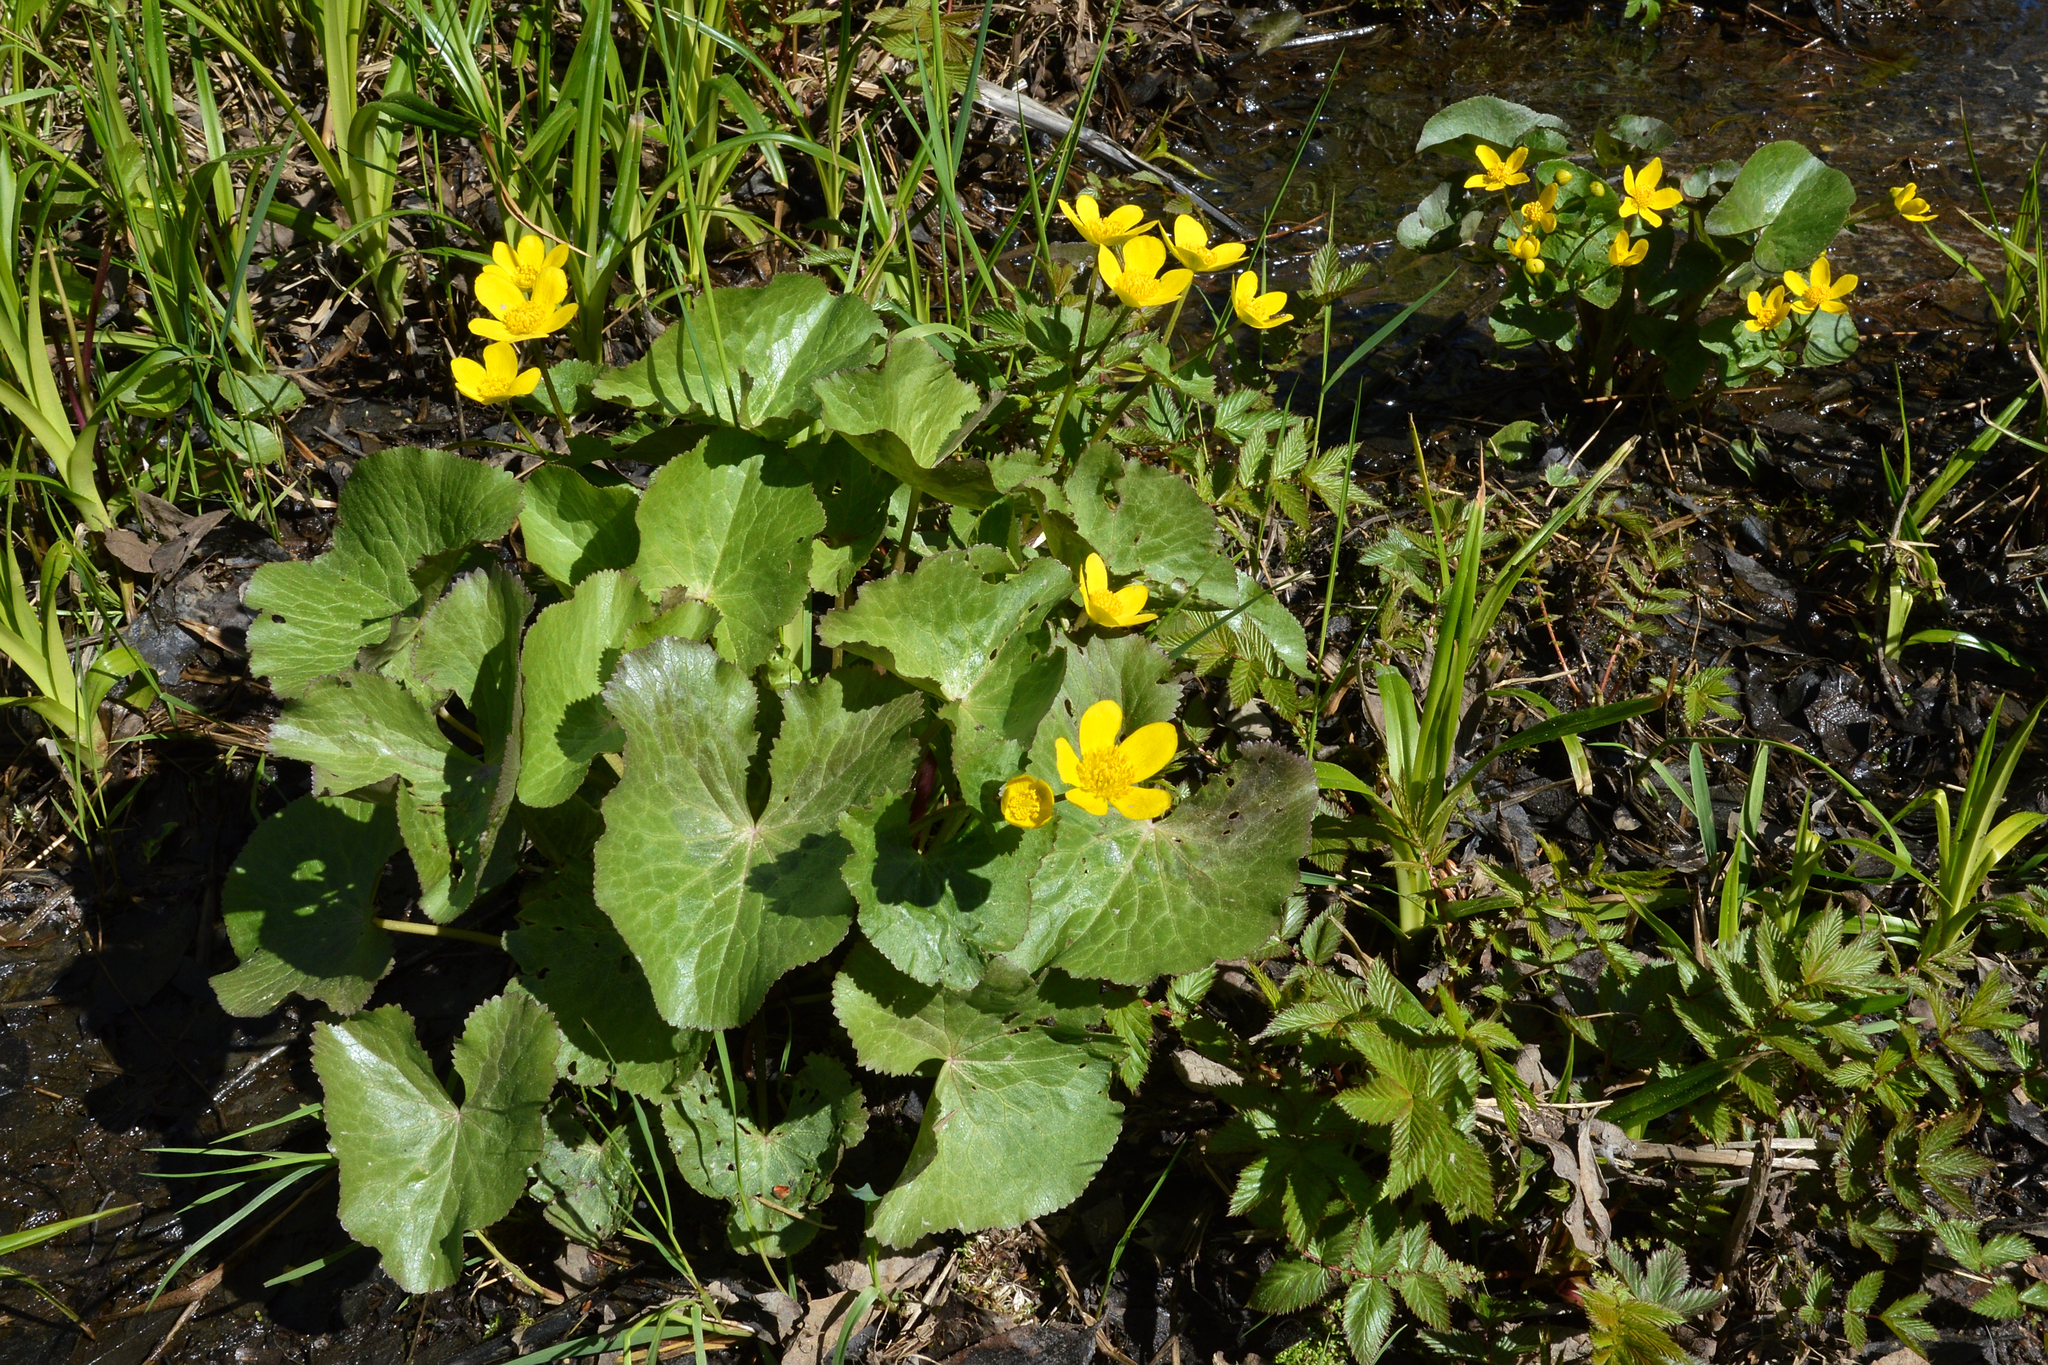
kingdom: Plantae
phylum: Tracheophyta
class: Magnoliopsida
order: Ranunculales
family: Ranunculaceae
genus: Caltha
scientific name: Caltha palustris
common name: Marsh marigold
